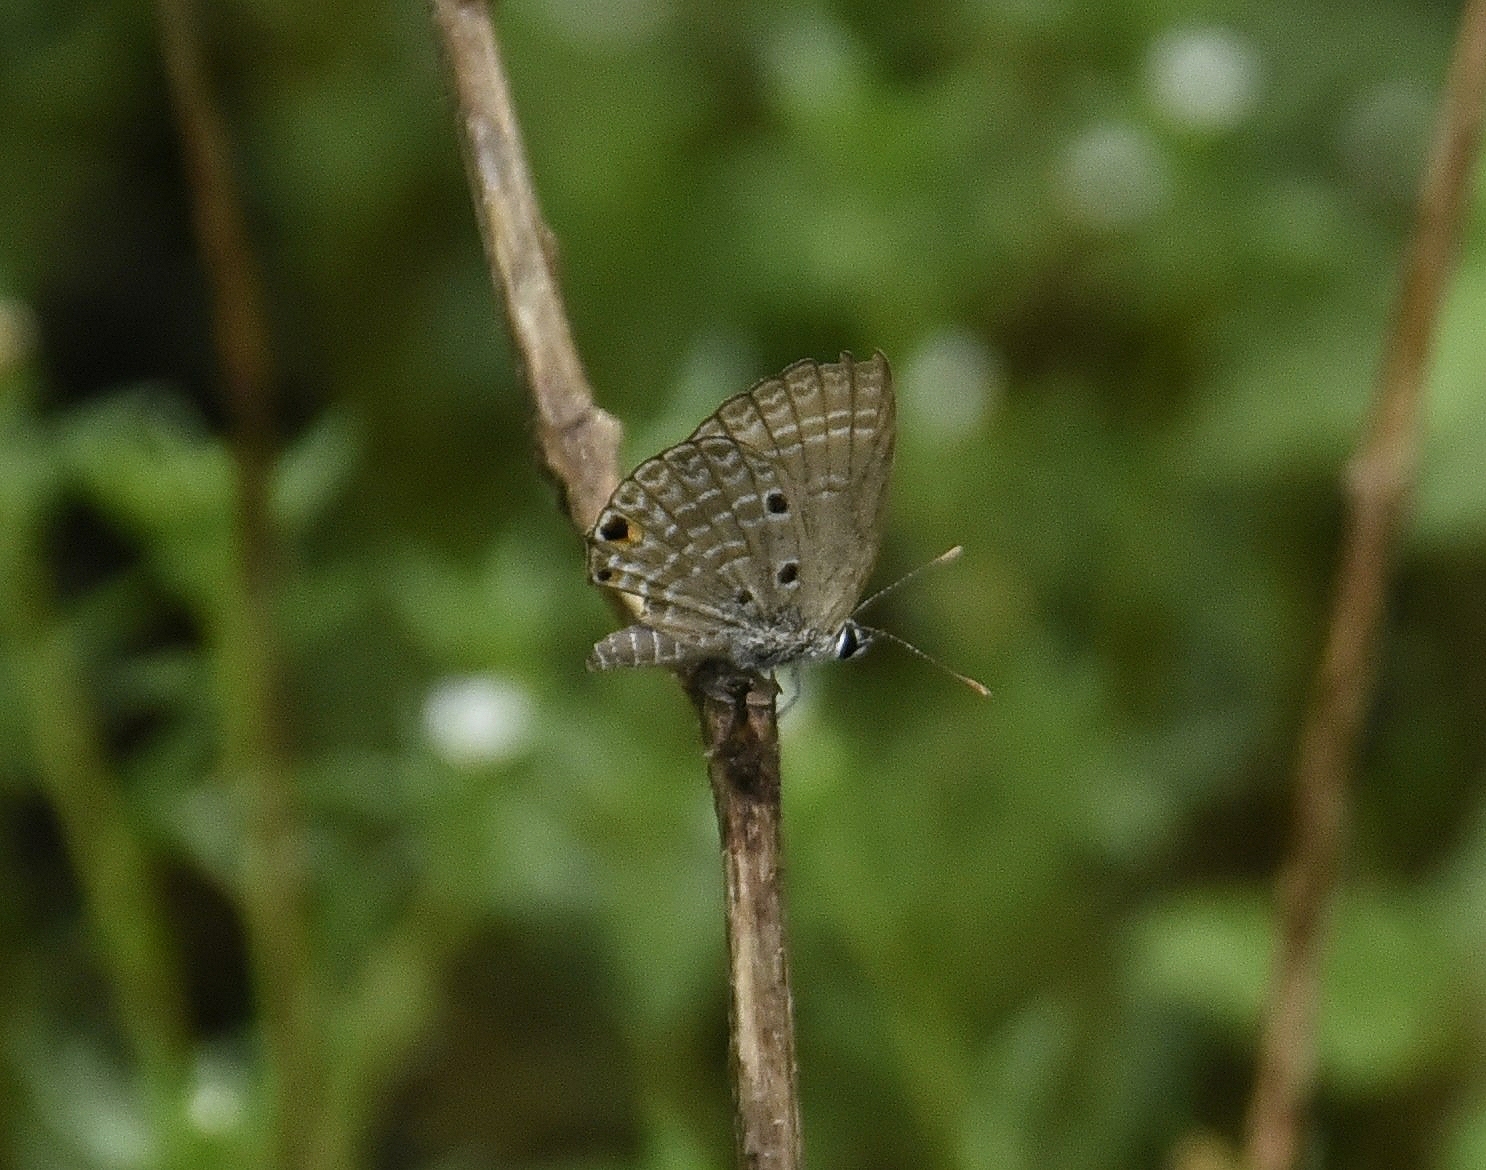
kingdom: Animalia
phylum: Arthropoda
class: Insecta
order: Lepidoptera
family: Lycaenidae
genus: Luthrodes
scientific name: Luthrodes pandava
